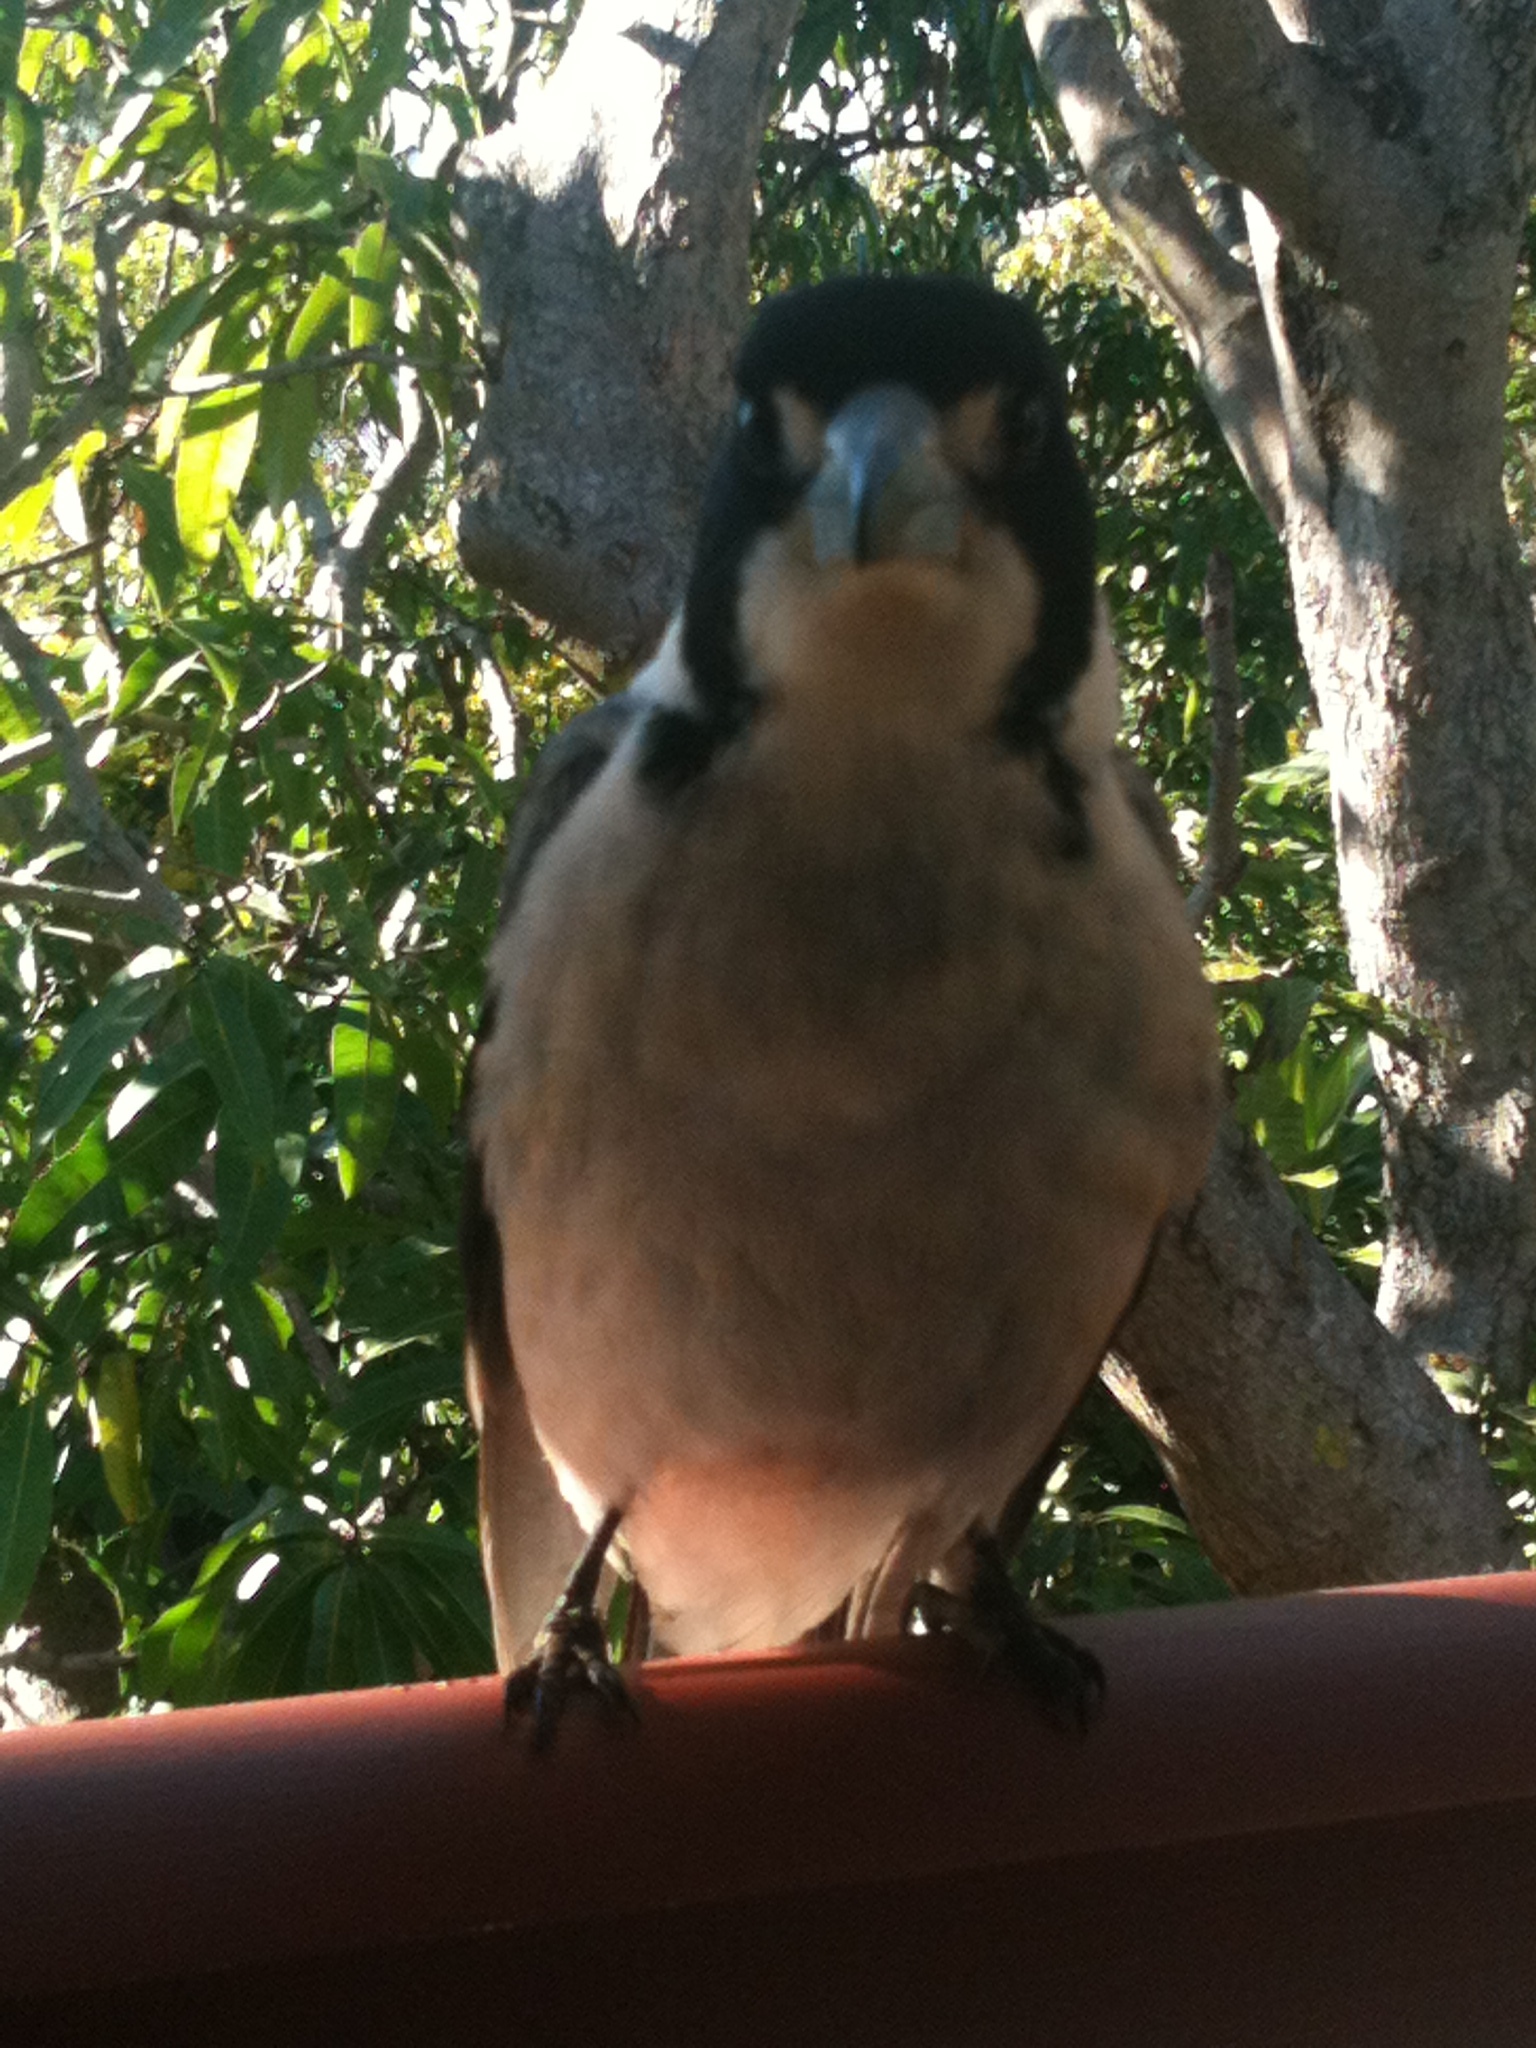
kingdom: Animalia
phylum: Chordata
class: Aves
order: Passeriformes
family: Cracticidae
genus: Cracticus
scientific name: Cracticus torquatus
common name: Grey butcherbird
